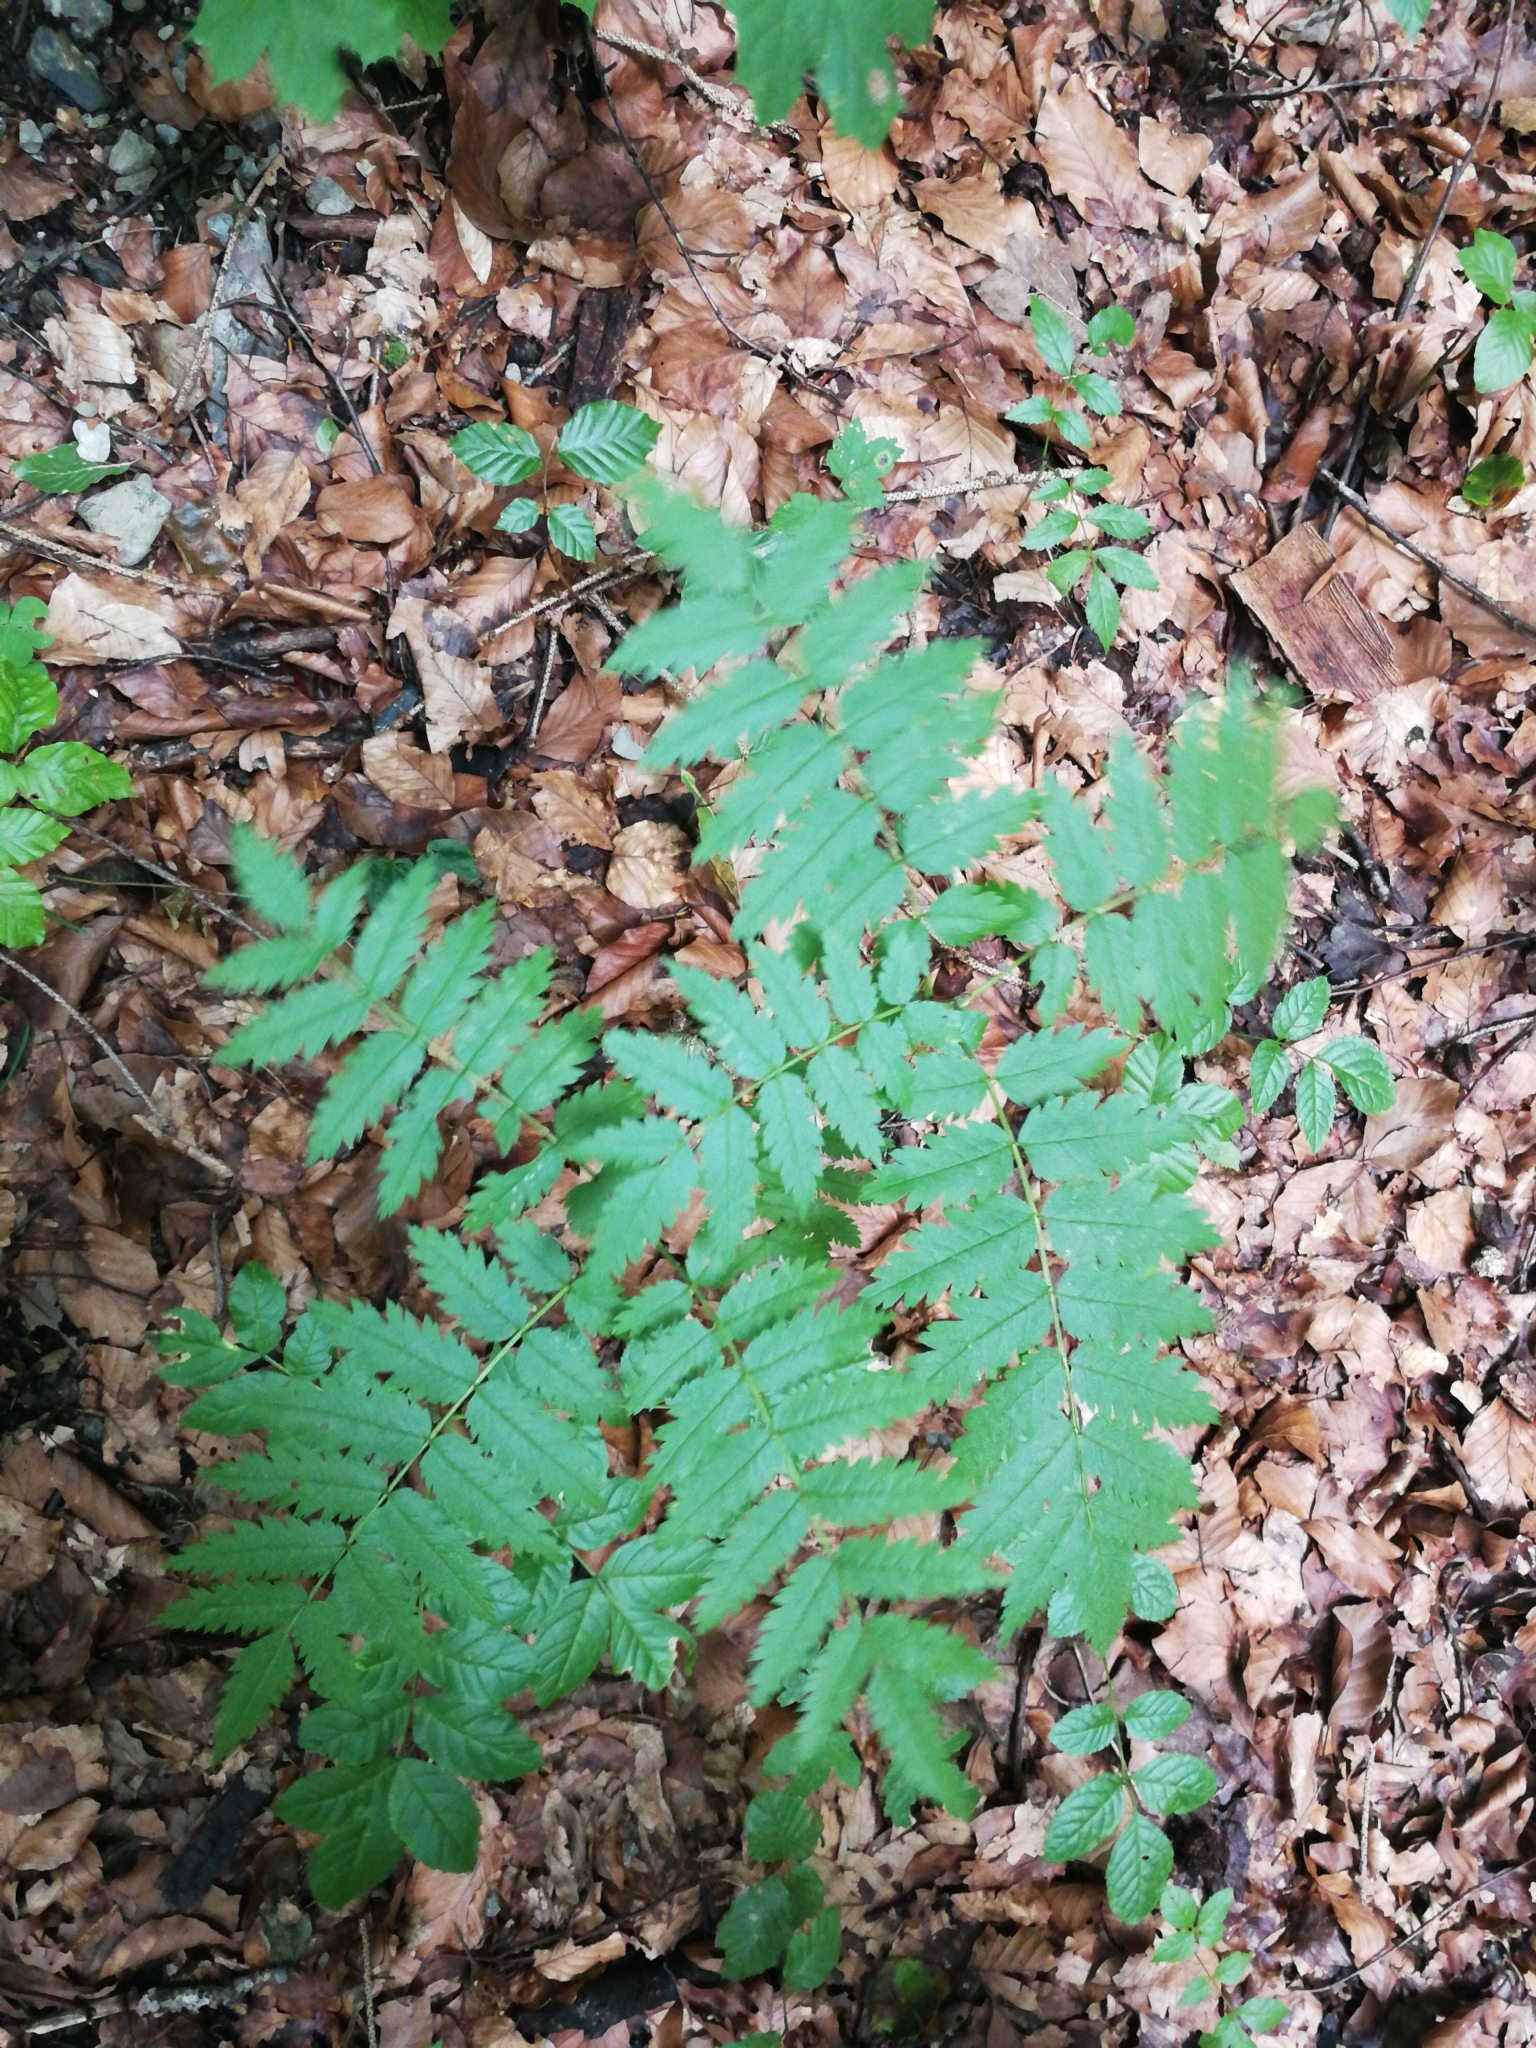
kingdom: Plantae
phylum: Tracheophyta
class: Magnoliopsida
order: Rosales
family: Rosaceae
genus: Sorbus
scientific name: Sorbus aucuparia
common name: Rowan
